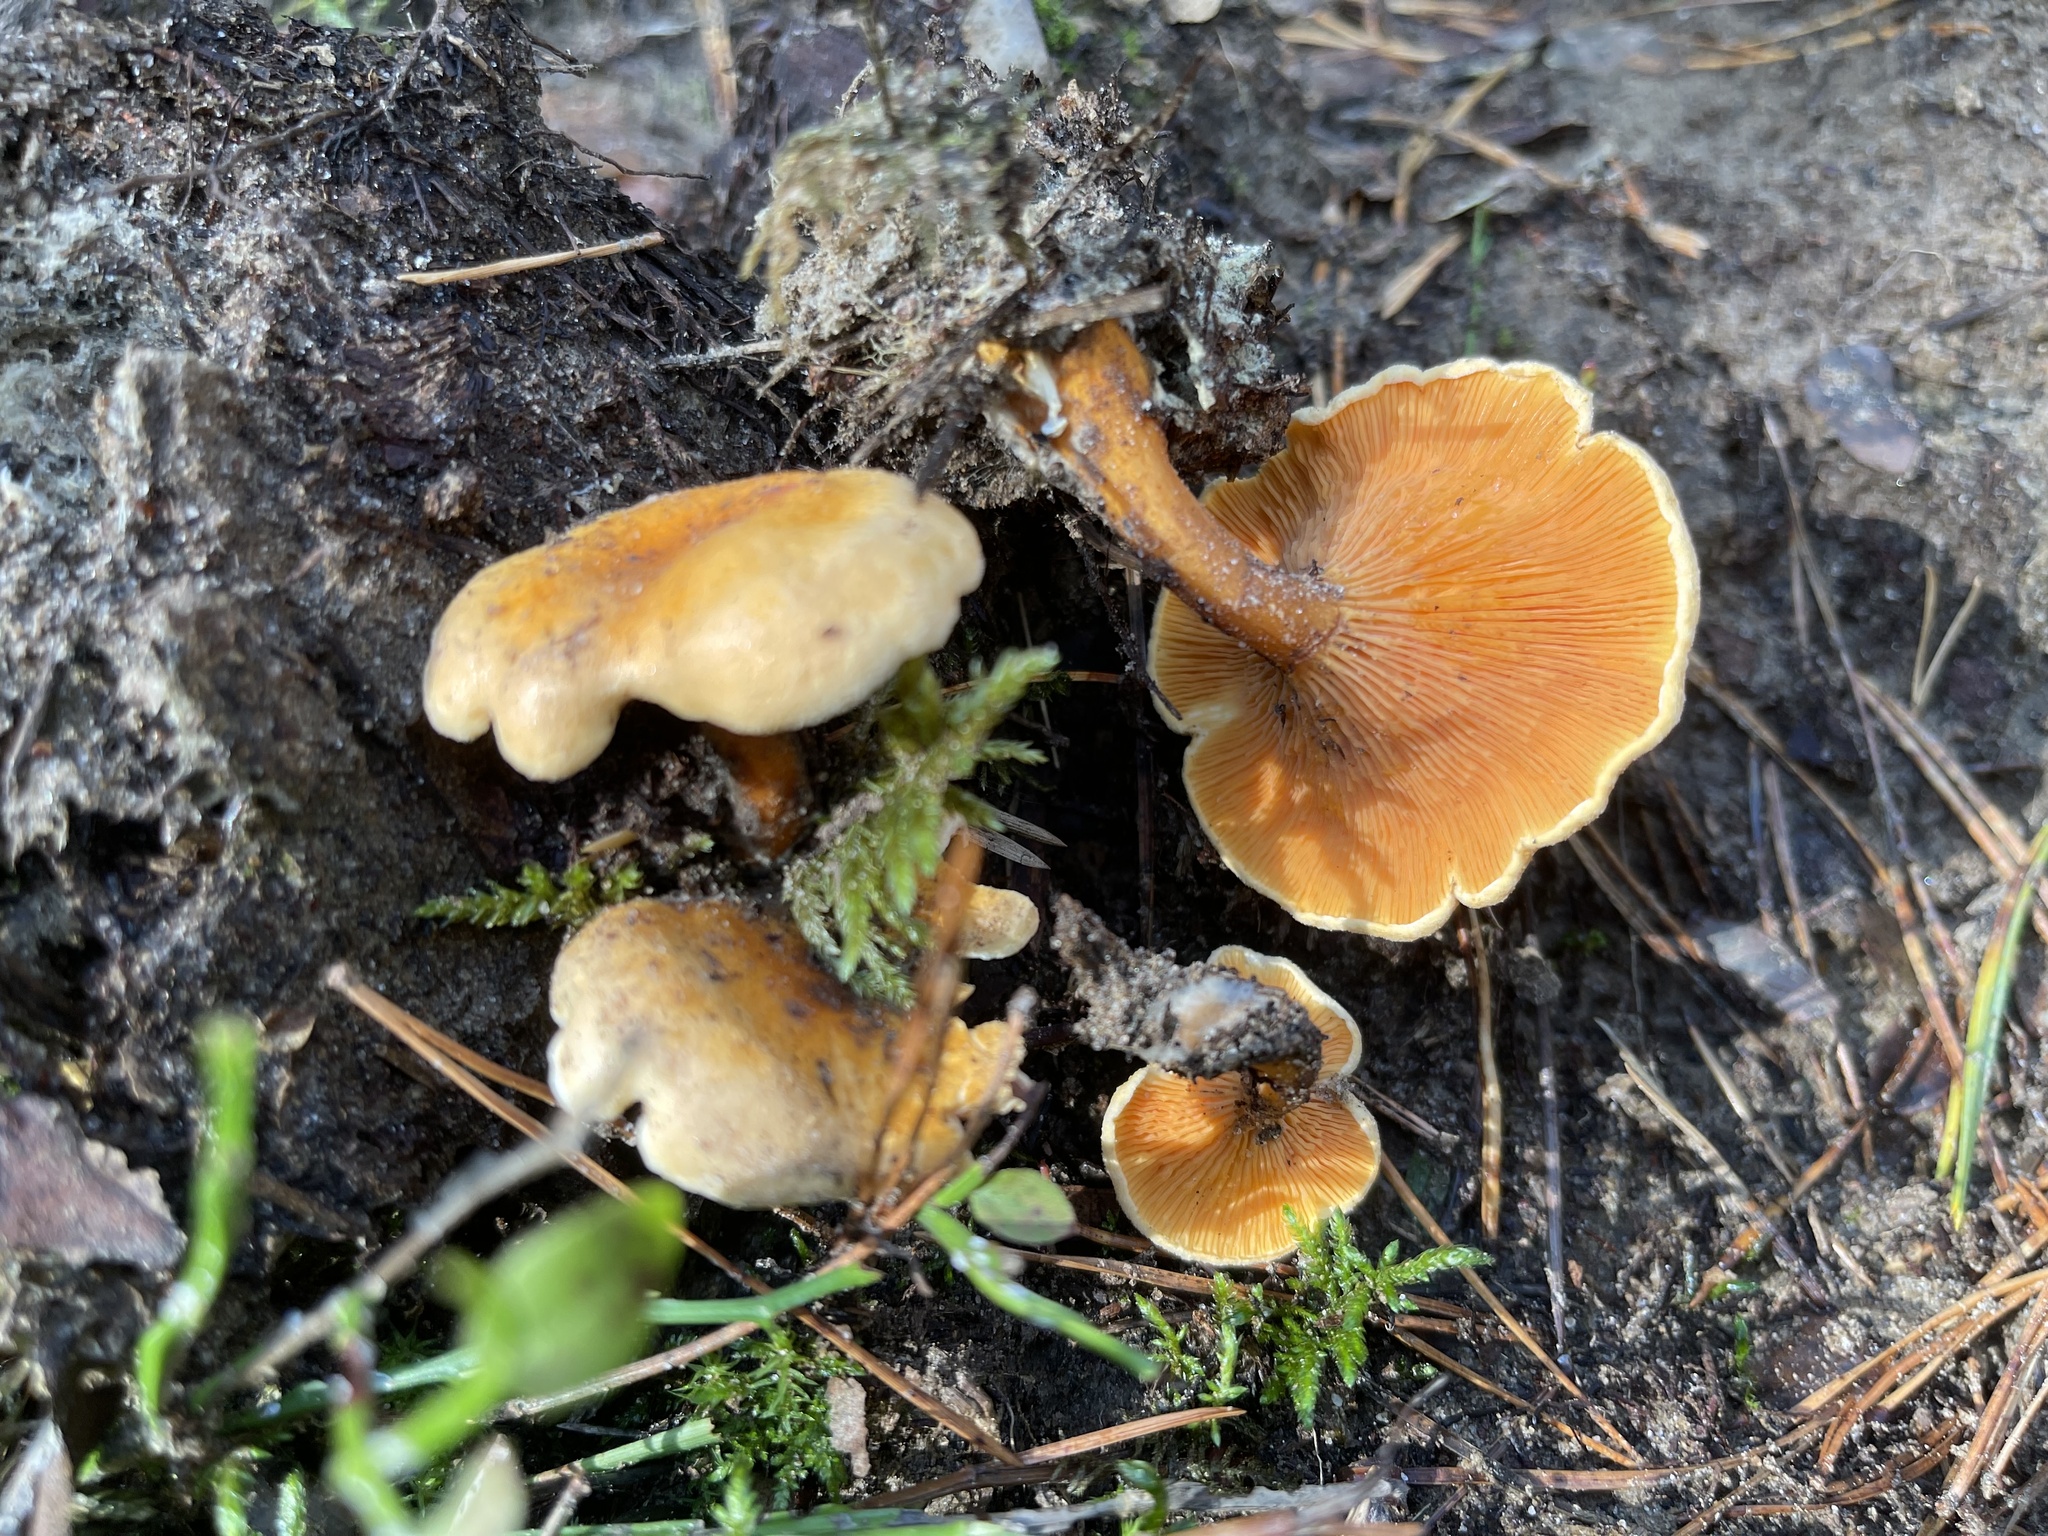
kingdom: Fungi
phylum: Basidiomycota
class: Agaricomycetes
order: Boletales
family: Hygrophoropsidaceae
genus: Hygrophoropsis
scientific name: Hygrophoropsis aurantiaca
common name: False chanterelle
